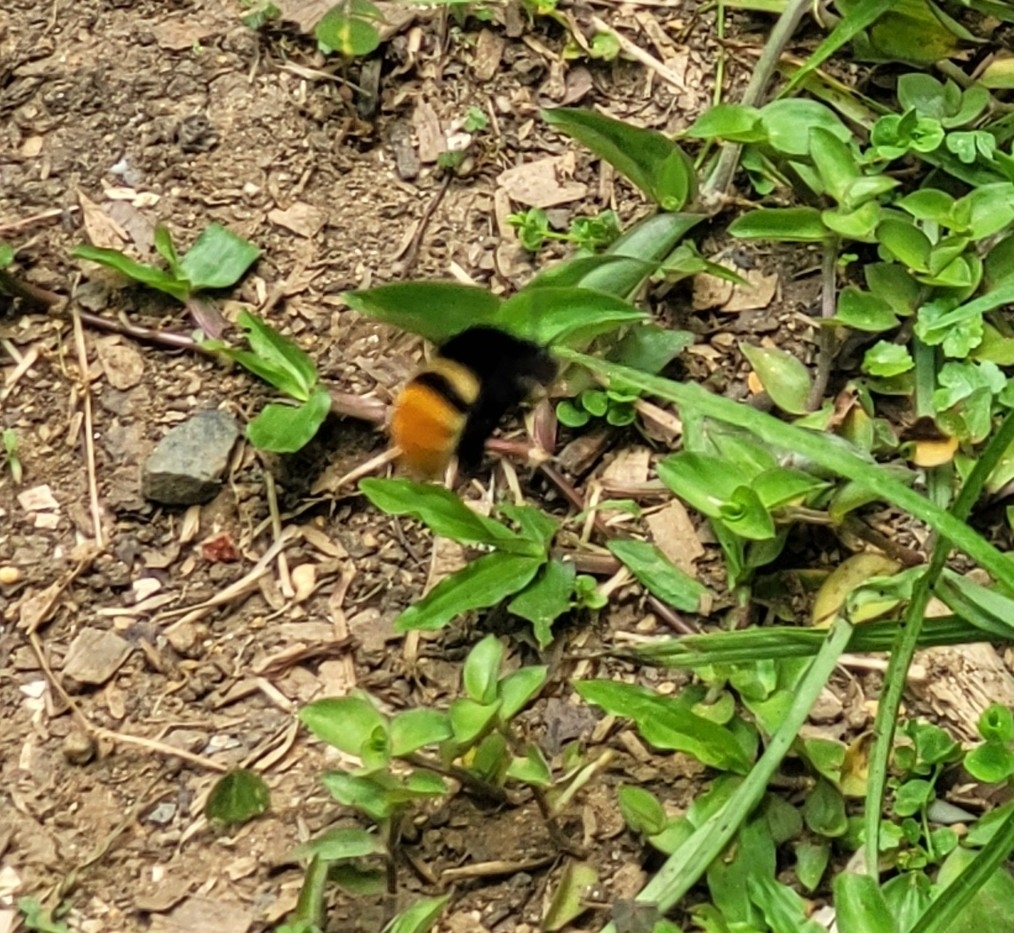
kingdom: Animalia
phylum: Arthropoda
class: Insecta
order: Hymenoptera
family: Apidae
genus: Eulaema
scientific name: Eulaema cingulata
